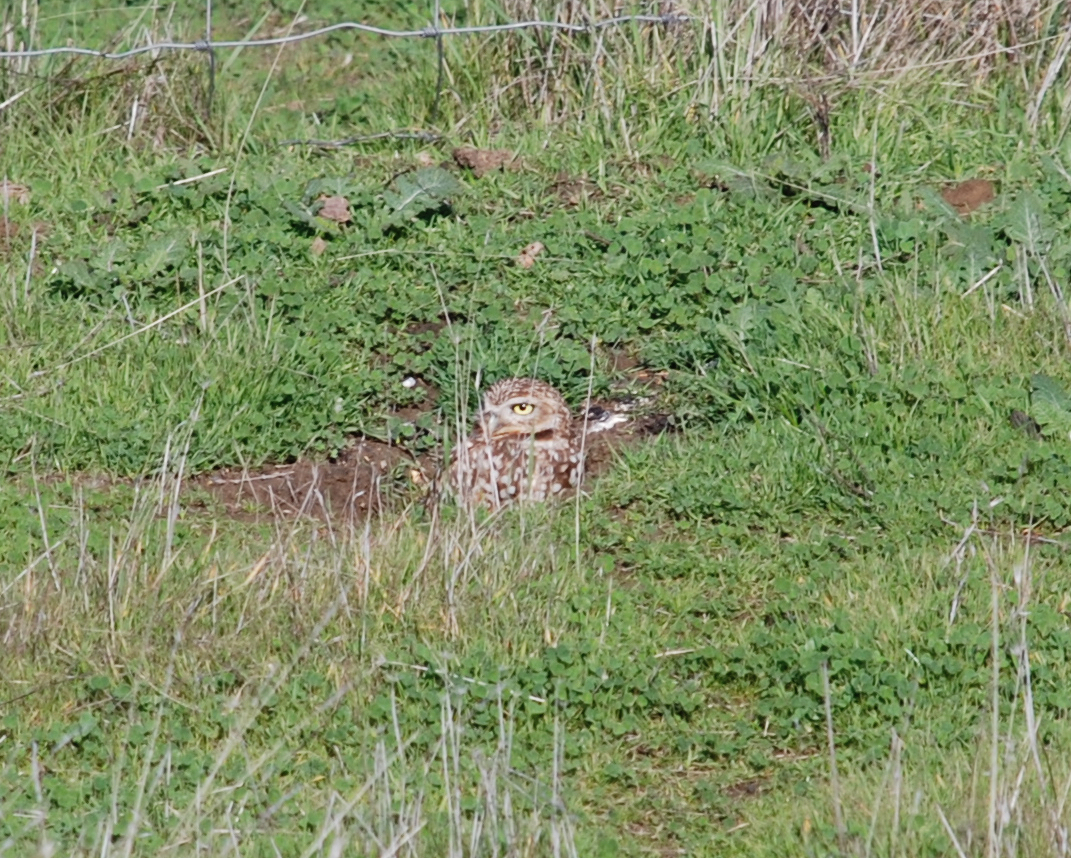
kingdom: Animalia
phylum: Chordata
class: Aves
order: Strigiformes
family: Strigidae
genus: Athene
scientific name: Athene cunicularia
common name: Burrowing owl
